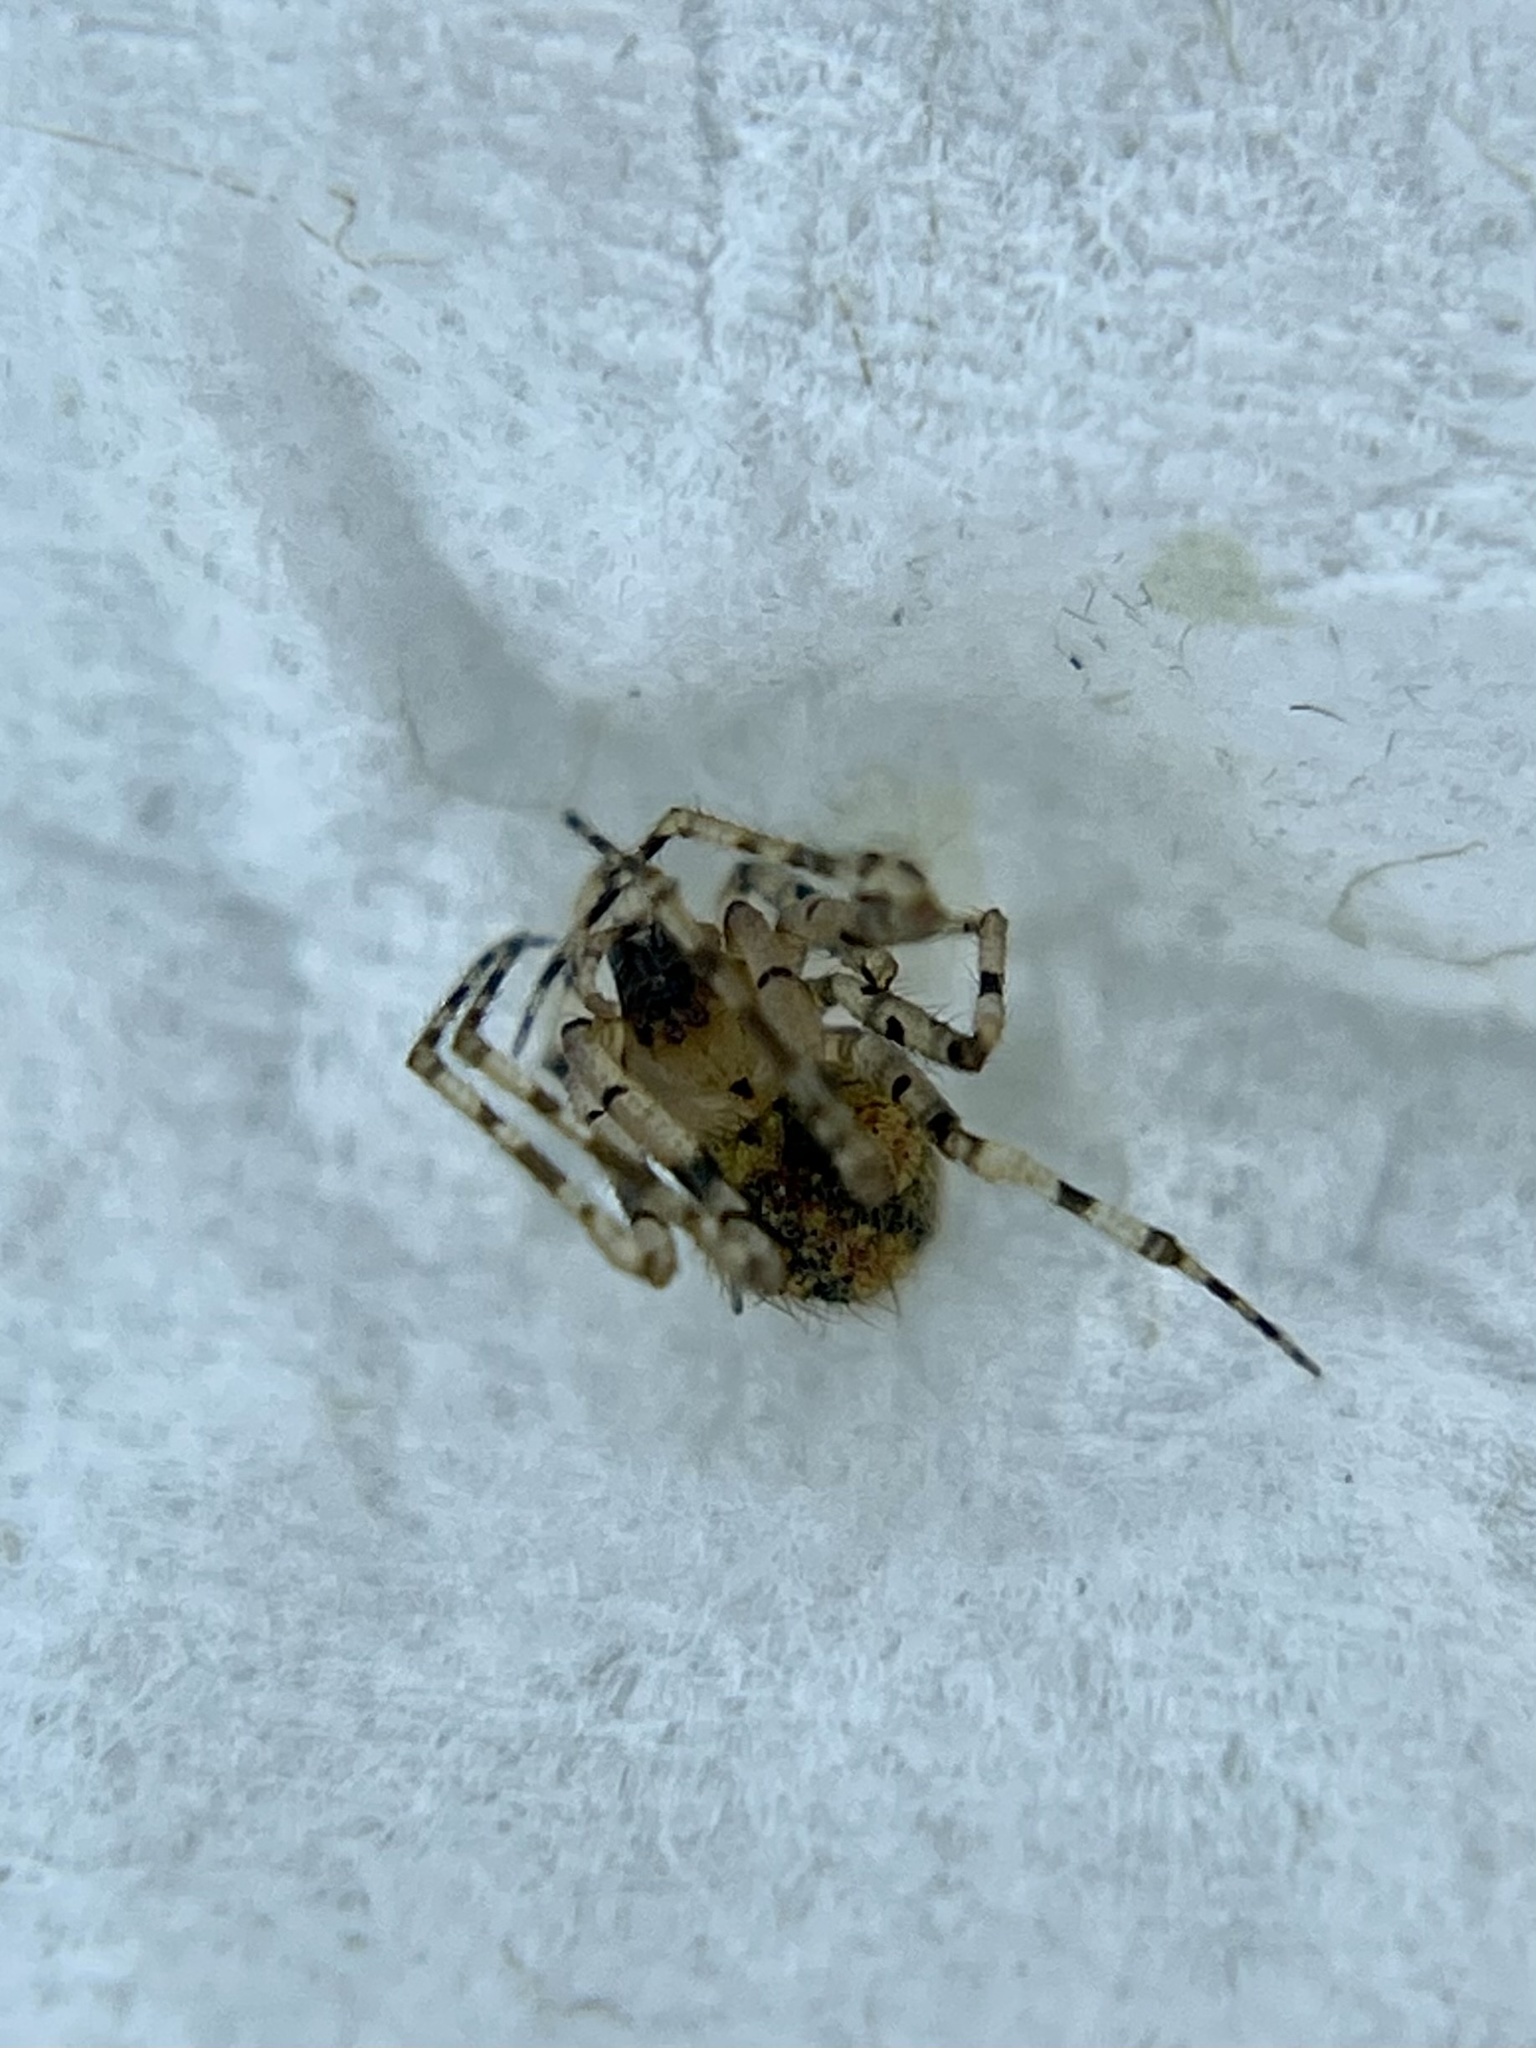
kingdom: Animalia
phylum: Arthropoda
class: Arachnida
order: Araneae
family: Theridiidae
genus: Platnickina
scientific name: Platnickina mneon
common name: Theridiid spidereater
